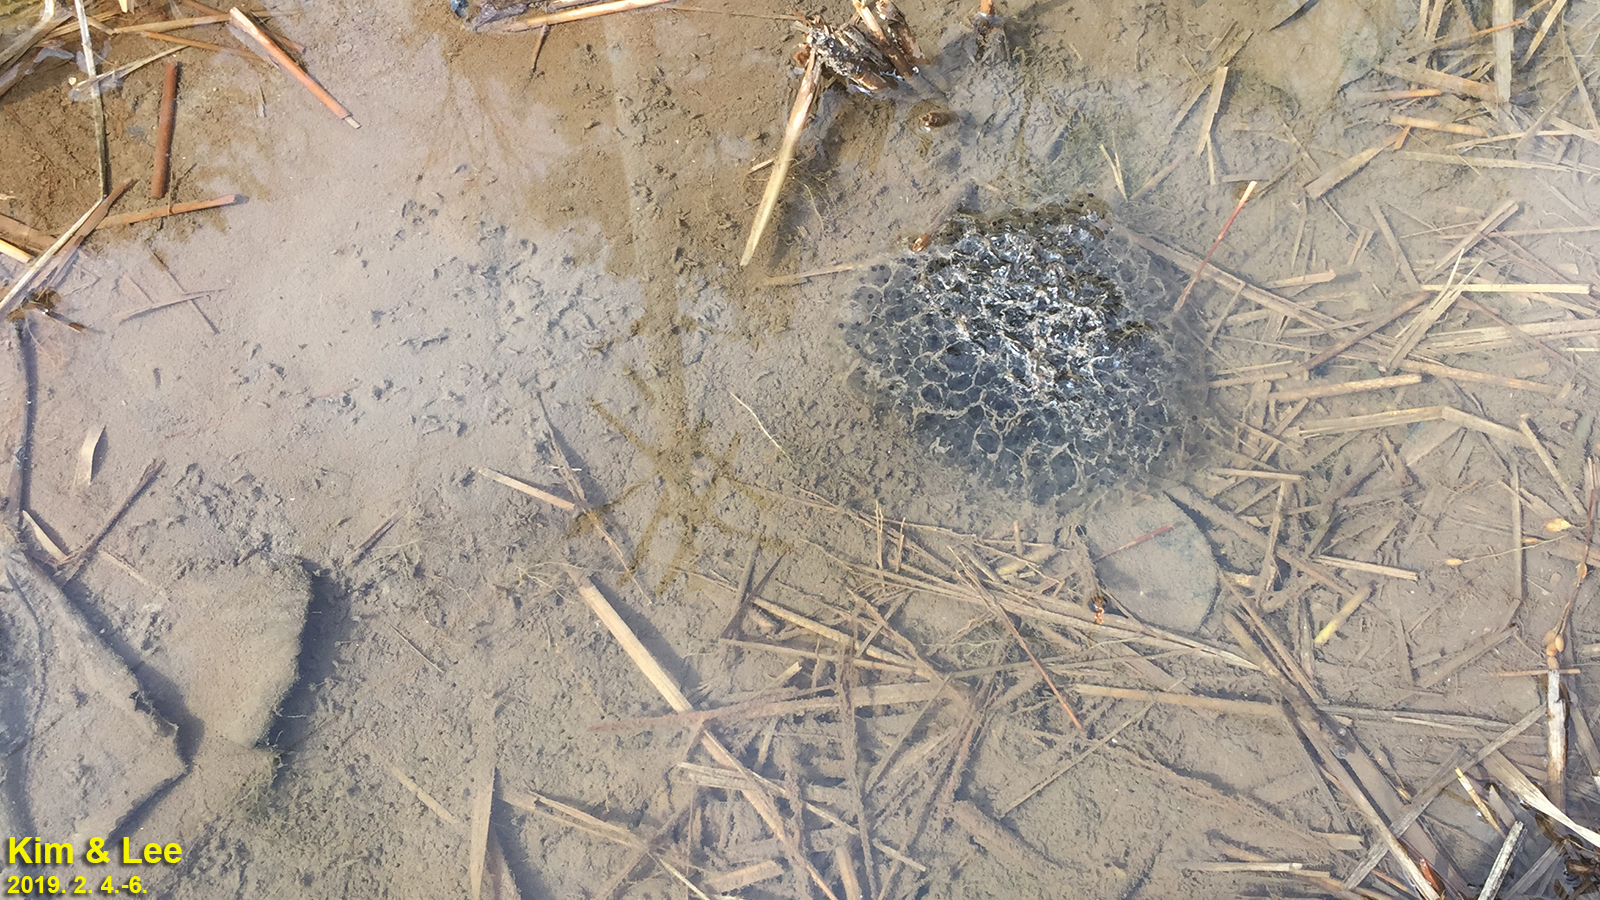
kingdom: Animalia
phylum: Chordata
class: Amphibia
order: Anura
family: Ranidae
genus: Rana
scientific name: Rana uenoi
